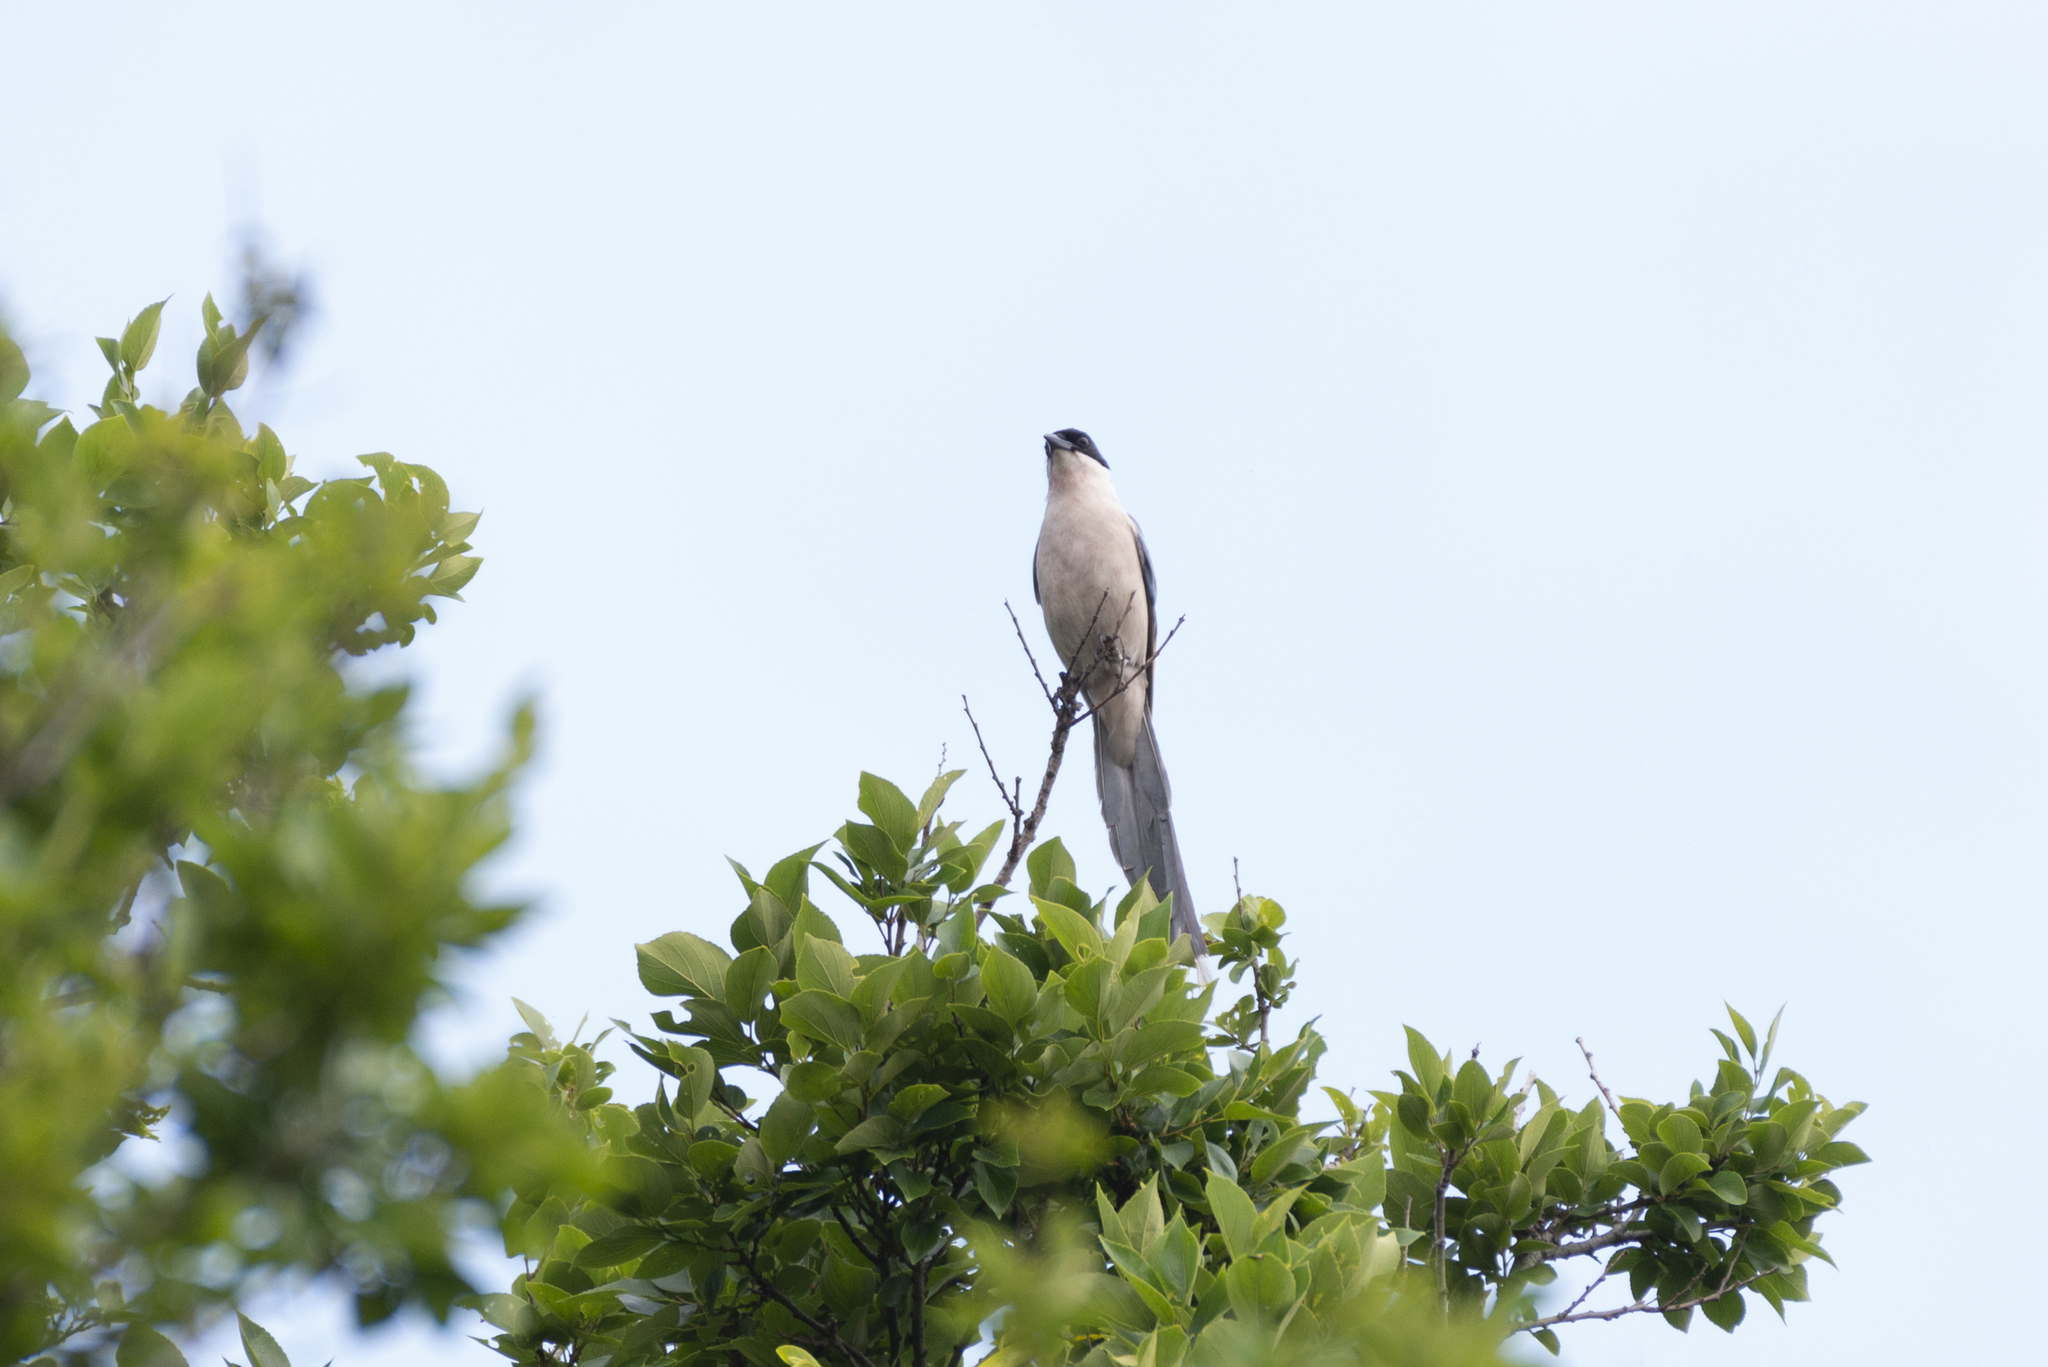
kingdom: Animalia
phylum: Chordata
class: Aves
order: Passeriformes
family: Corvidae
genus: Cyanopica
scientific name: Cyanopica cyanus
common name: Azure-winged magpie
